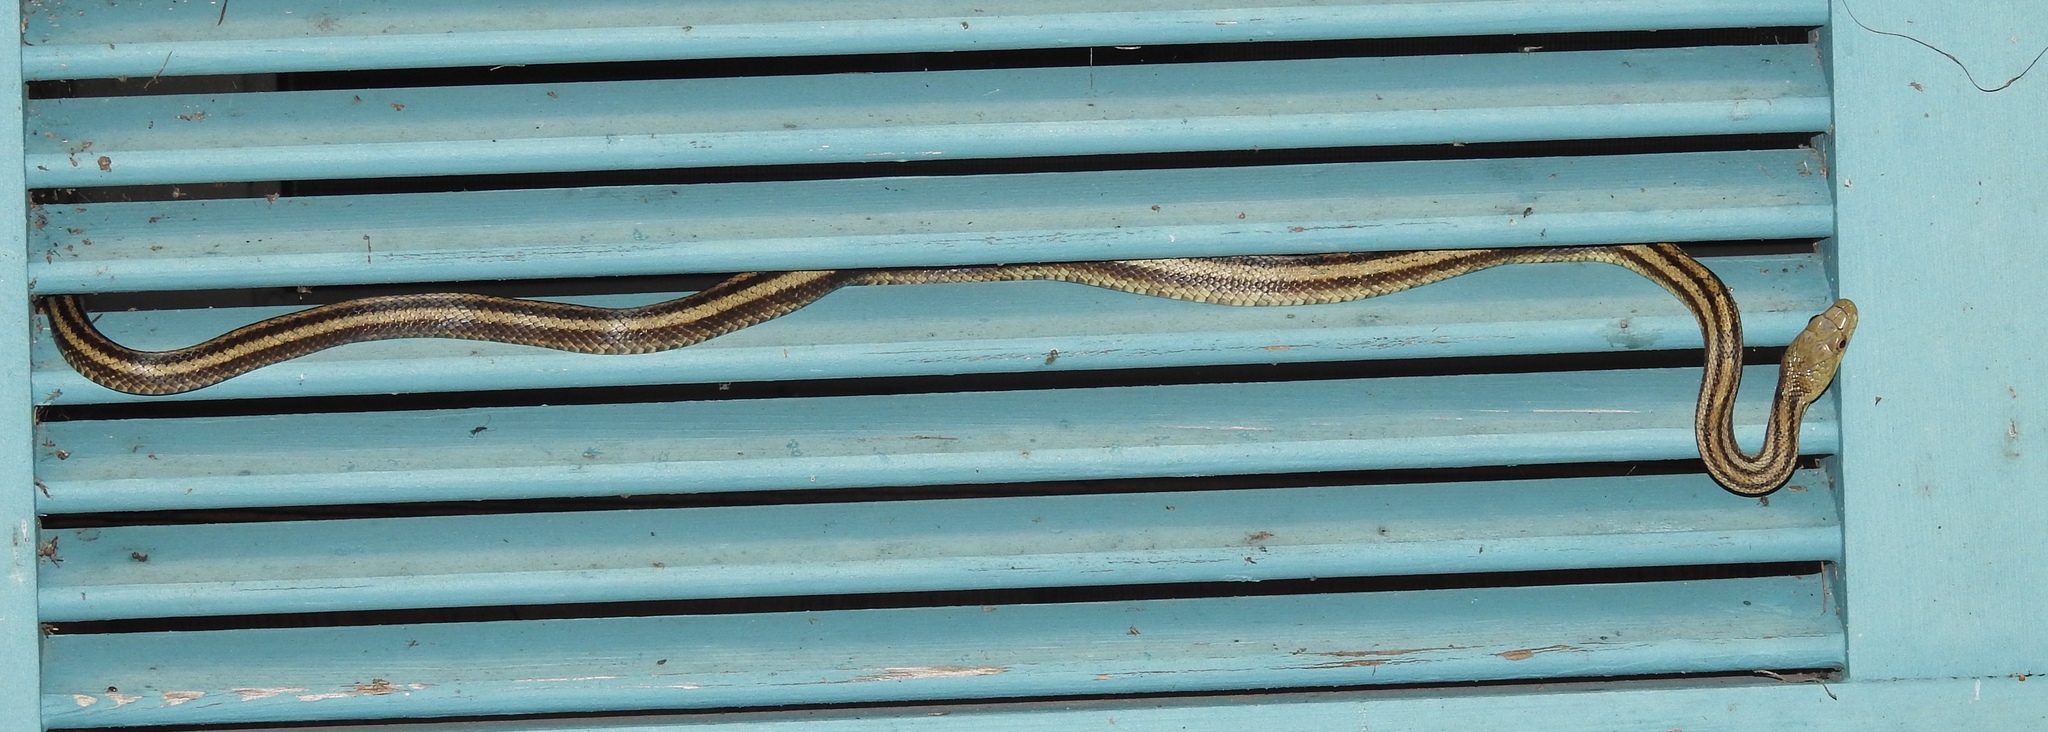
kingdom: Animalia
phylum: Chordata
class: Squamata
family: Colubridae
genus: Pantherophis
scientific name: Pantherophis alleghaniensis
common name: Eastern rat snake
